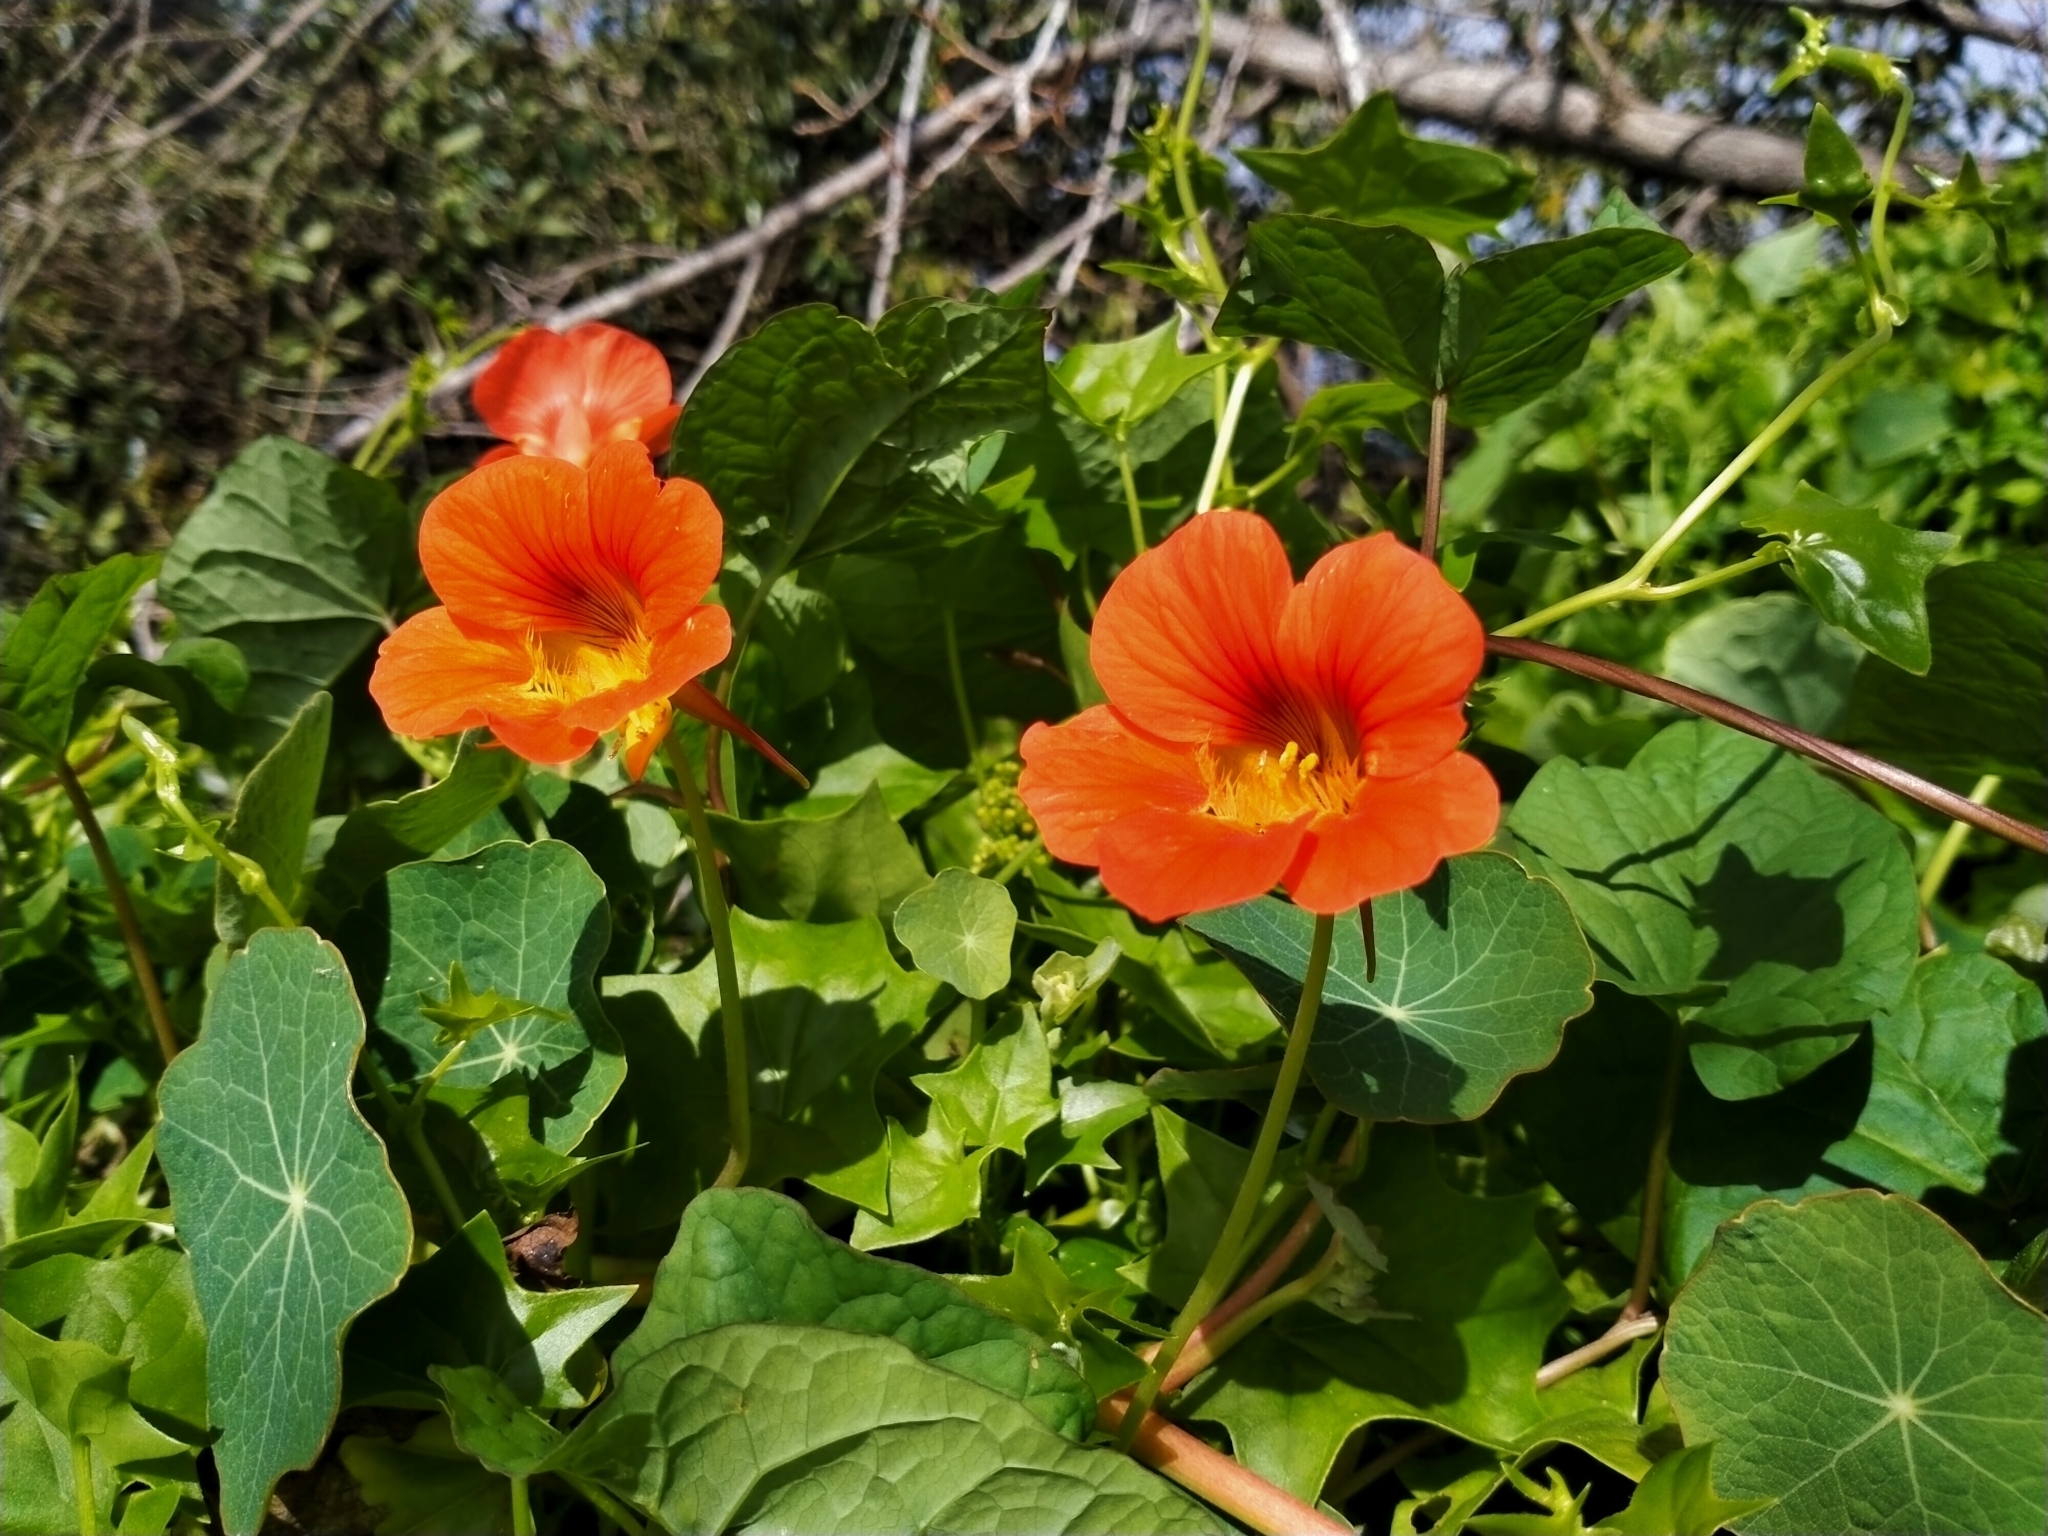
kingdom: Plantae
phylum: Tracheophyta
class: Magnoliopsida
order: Brassicales
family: Tropaeolaceae
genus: Tropaeolum
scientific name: Tropaeolum majus
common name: Nasturtium
